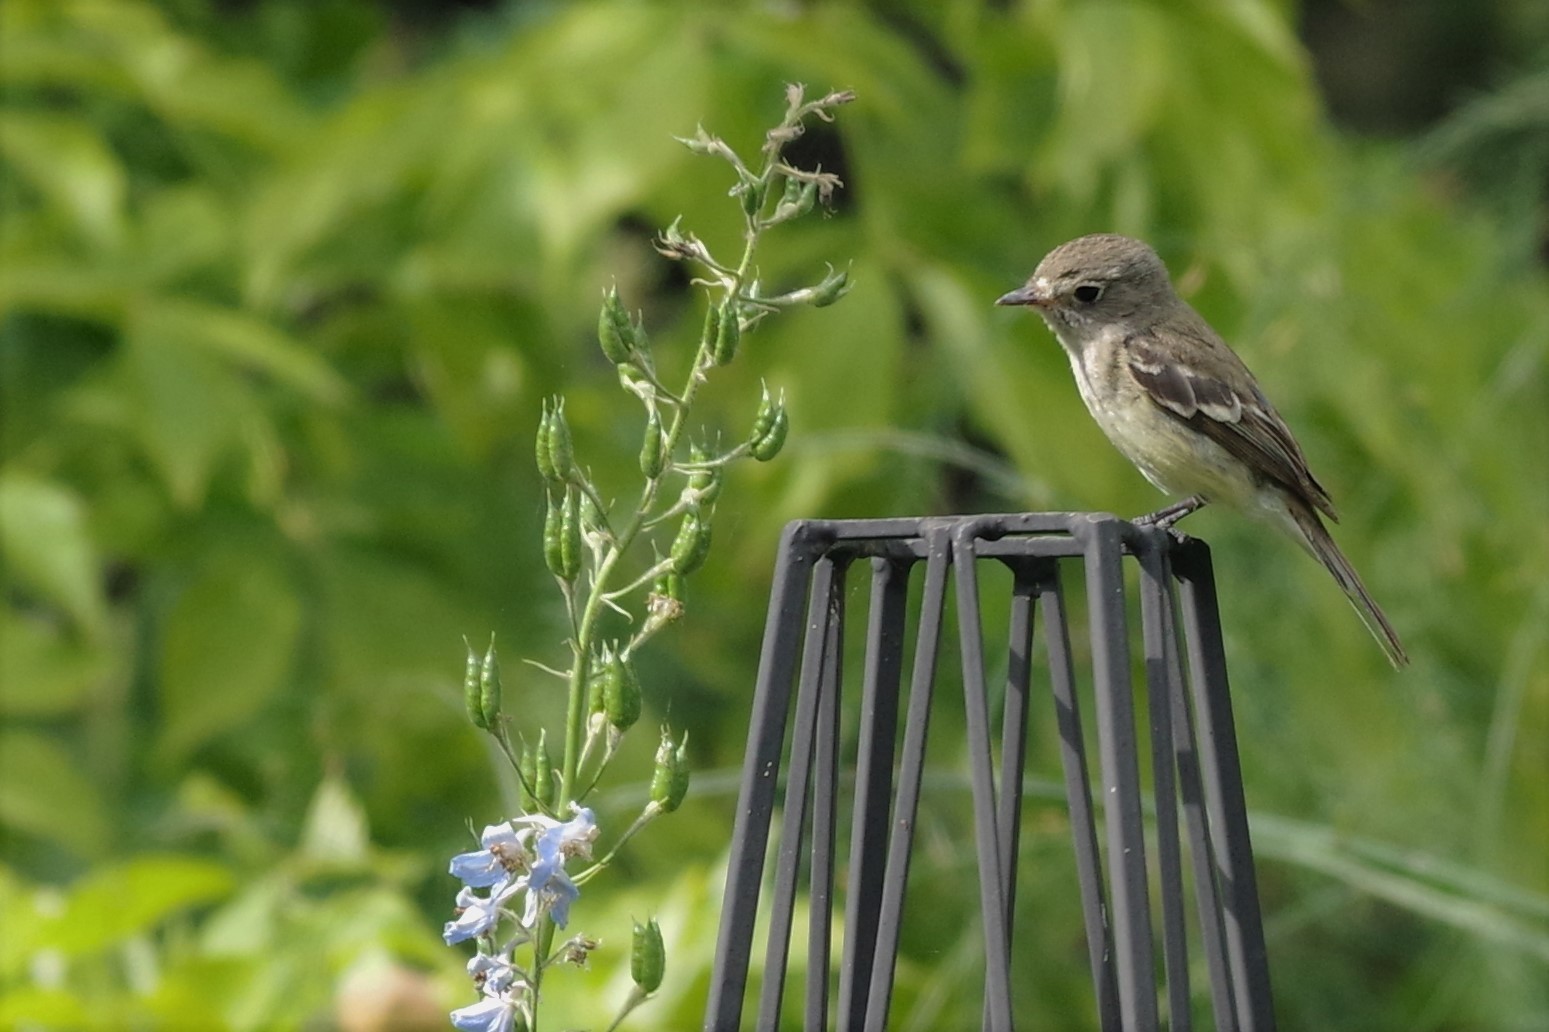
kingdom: Animalia
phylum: Chordata
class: Aves
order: Passeriformes
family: Tyrannidae
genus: Empidonax
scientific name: Empidonax minimus
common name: Least flycatcher
